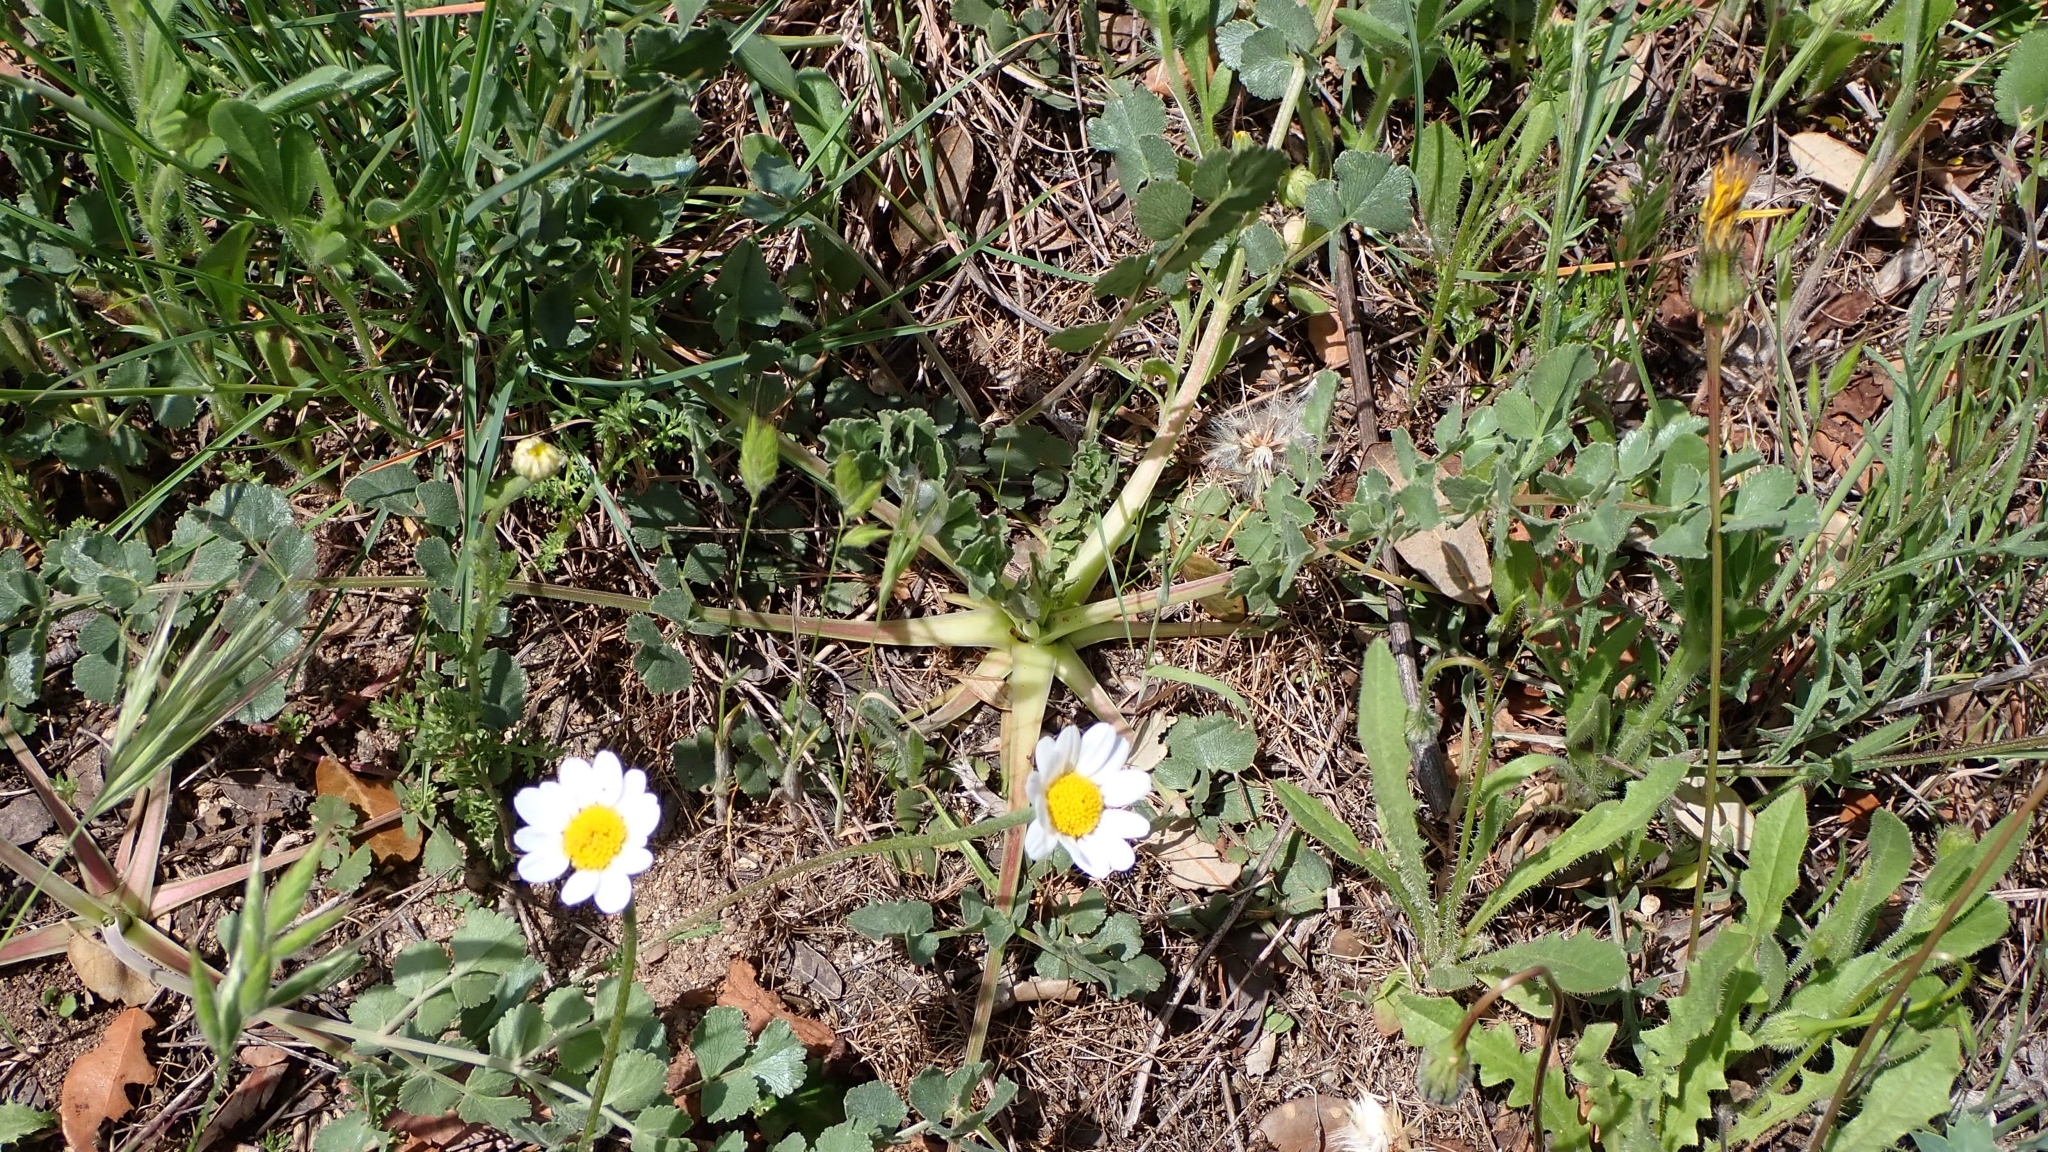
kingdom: Plantae
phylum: Tracheophyta
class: Magnoliopsida
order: Apiales
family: Apiaceae
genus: Pimpinella
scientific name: Pimpinella villosa
